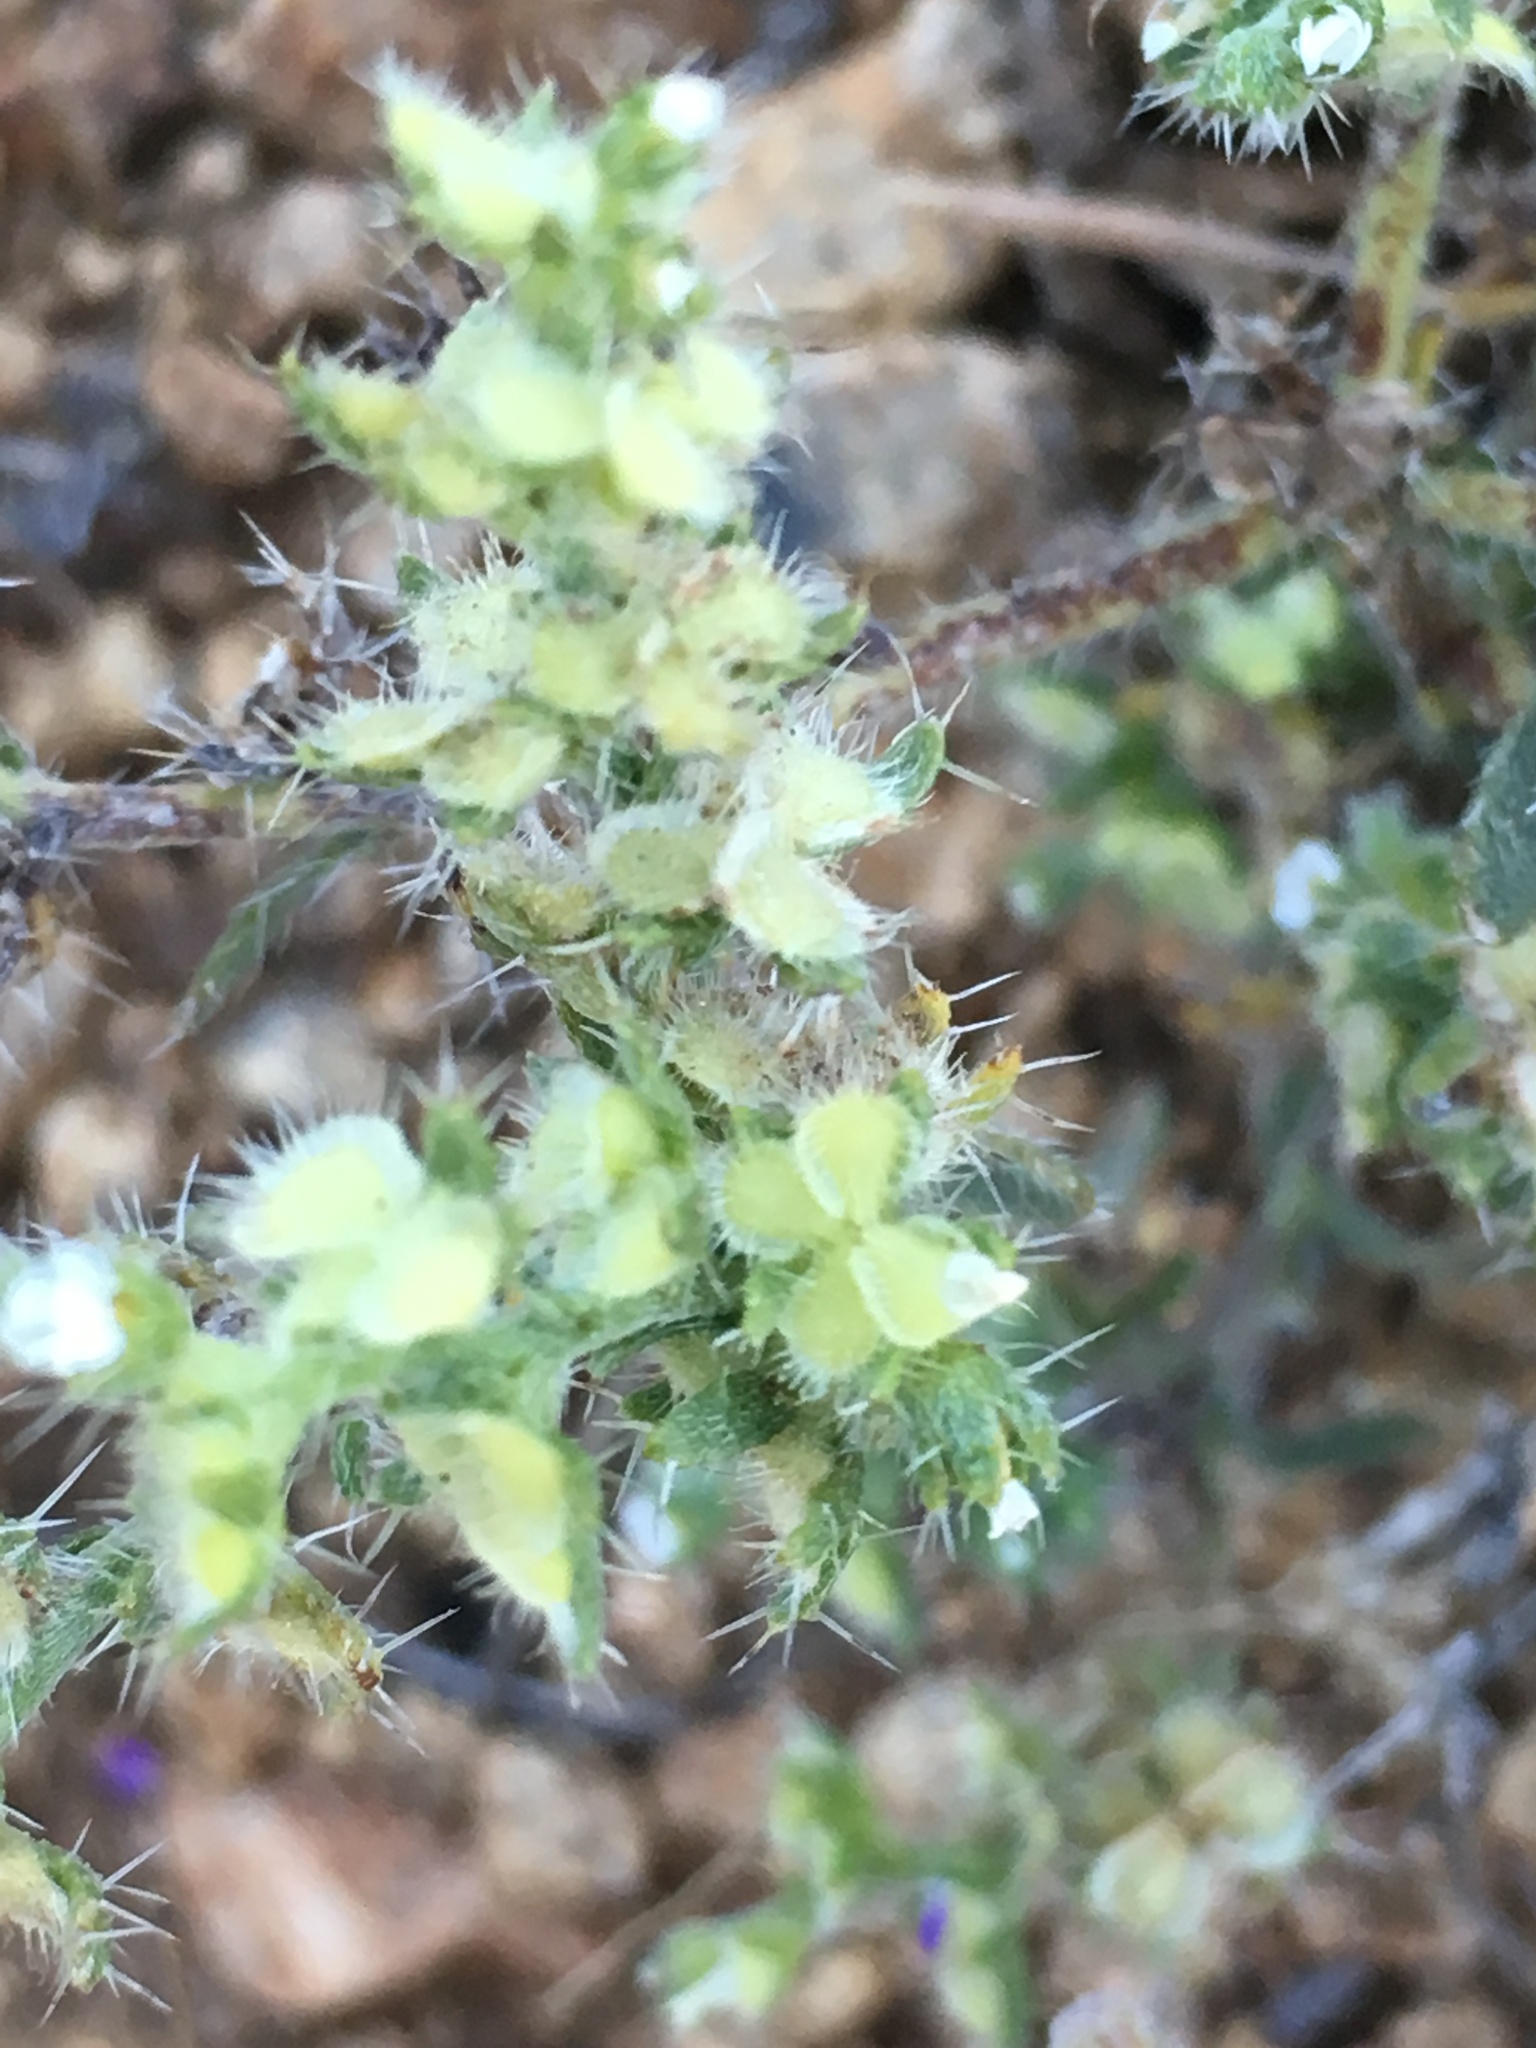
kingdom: Plantae
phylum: Tracheophyta
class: Magnoliopsida
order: Boraginales
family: Boraginaceae
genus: Pectocarya
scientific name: Pectocarya setosa
